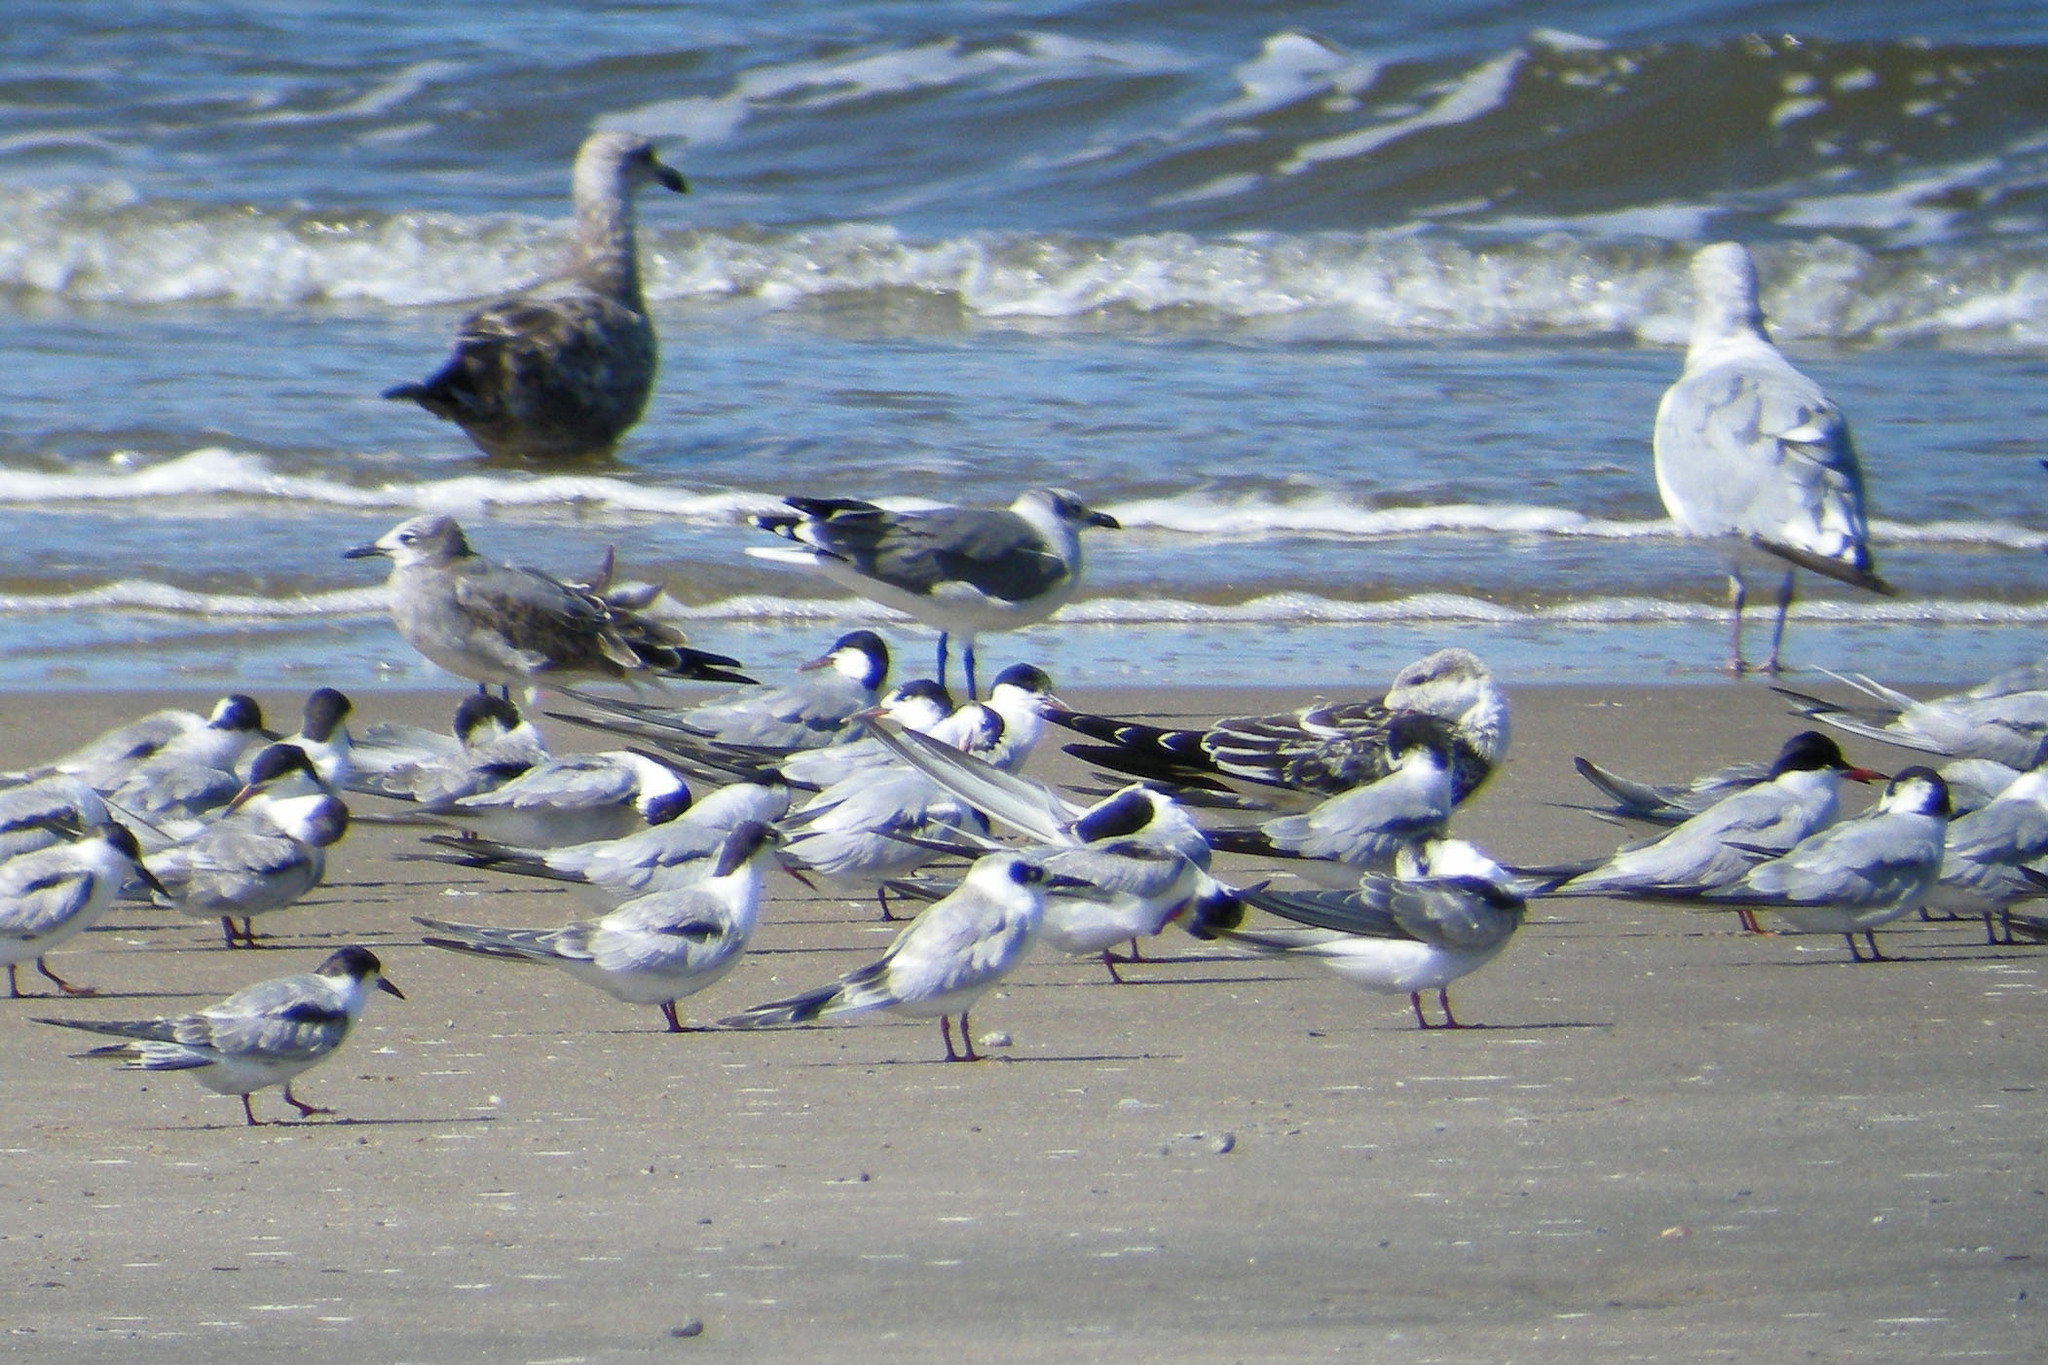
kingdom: Animalia
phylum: Chordata
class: Aves
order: Charadriiformes
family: Laridae
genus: Chlidonias
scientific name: Chlidonias niger
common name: Black tern
